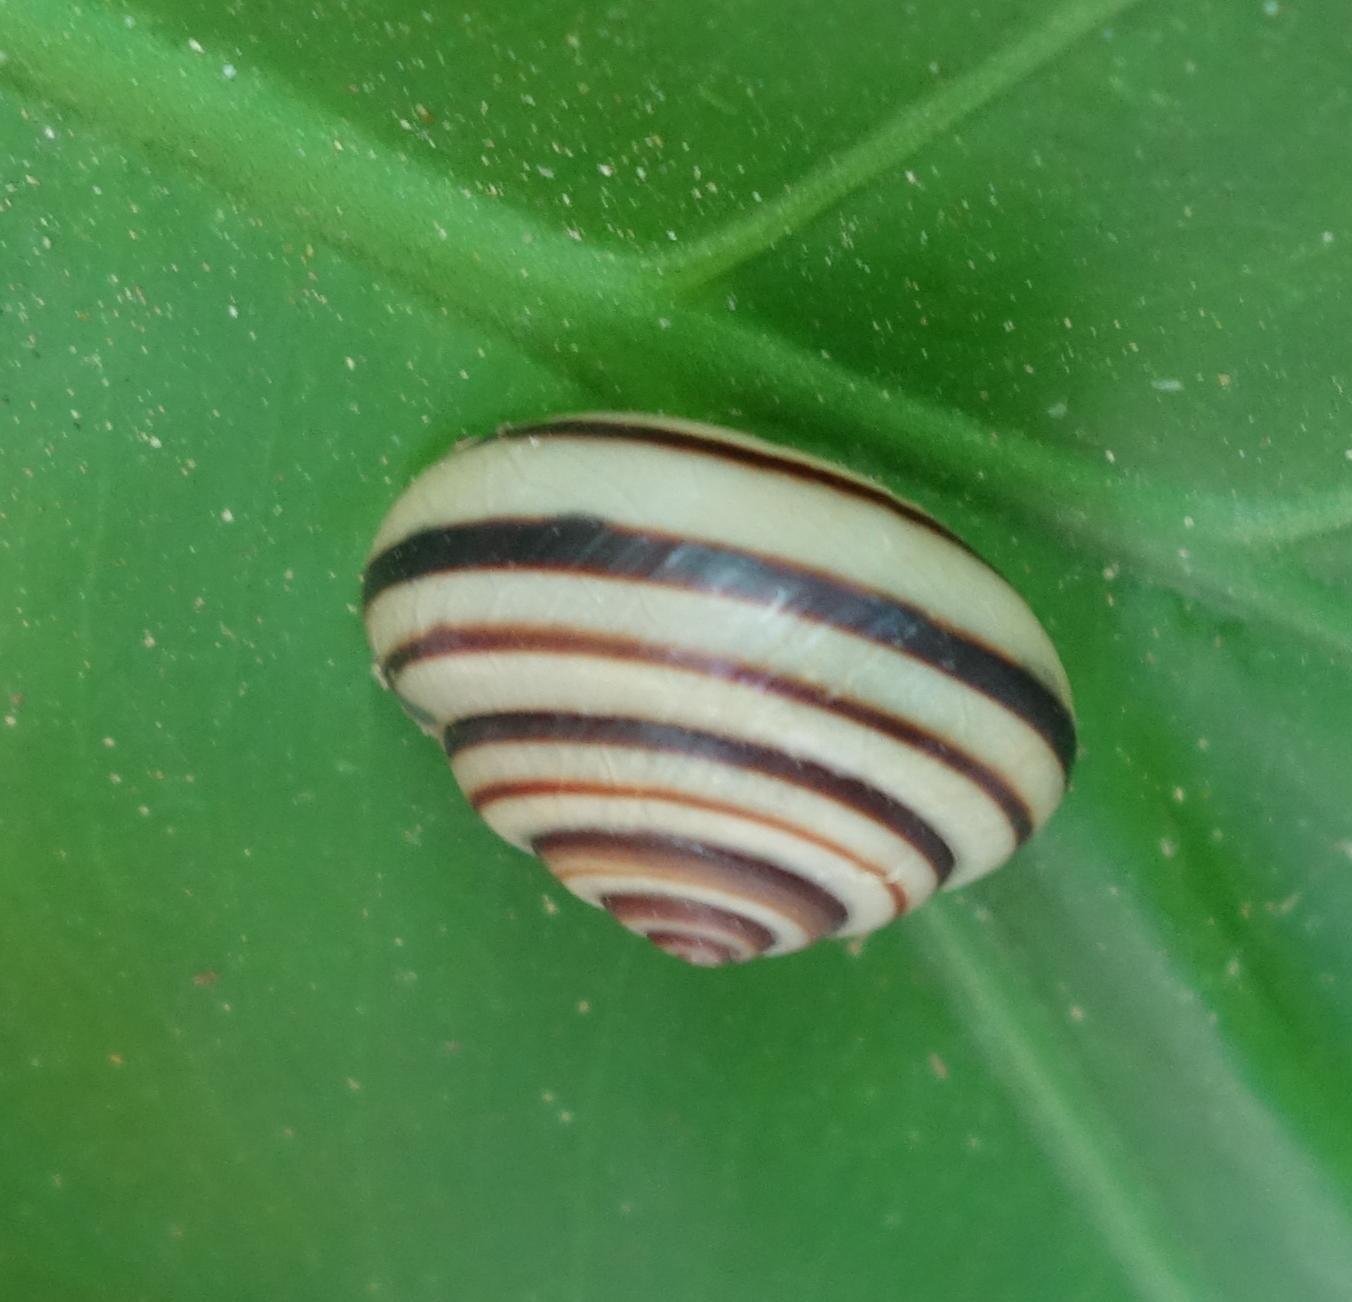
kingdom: Animalia
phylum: Mollusca
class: Gastropoda
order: Stylommatophora
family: Camaenidae
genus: Pancala
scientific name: Pancala batanica
